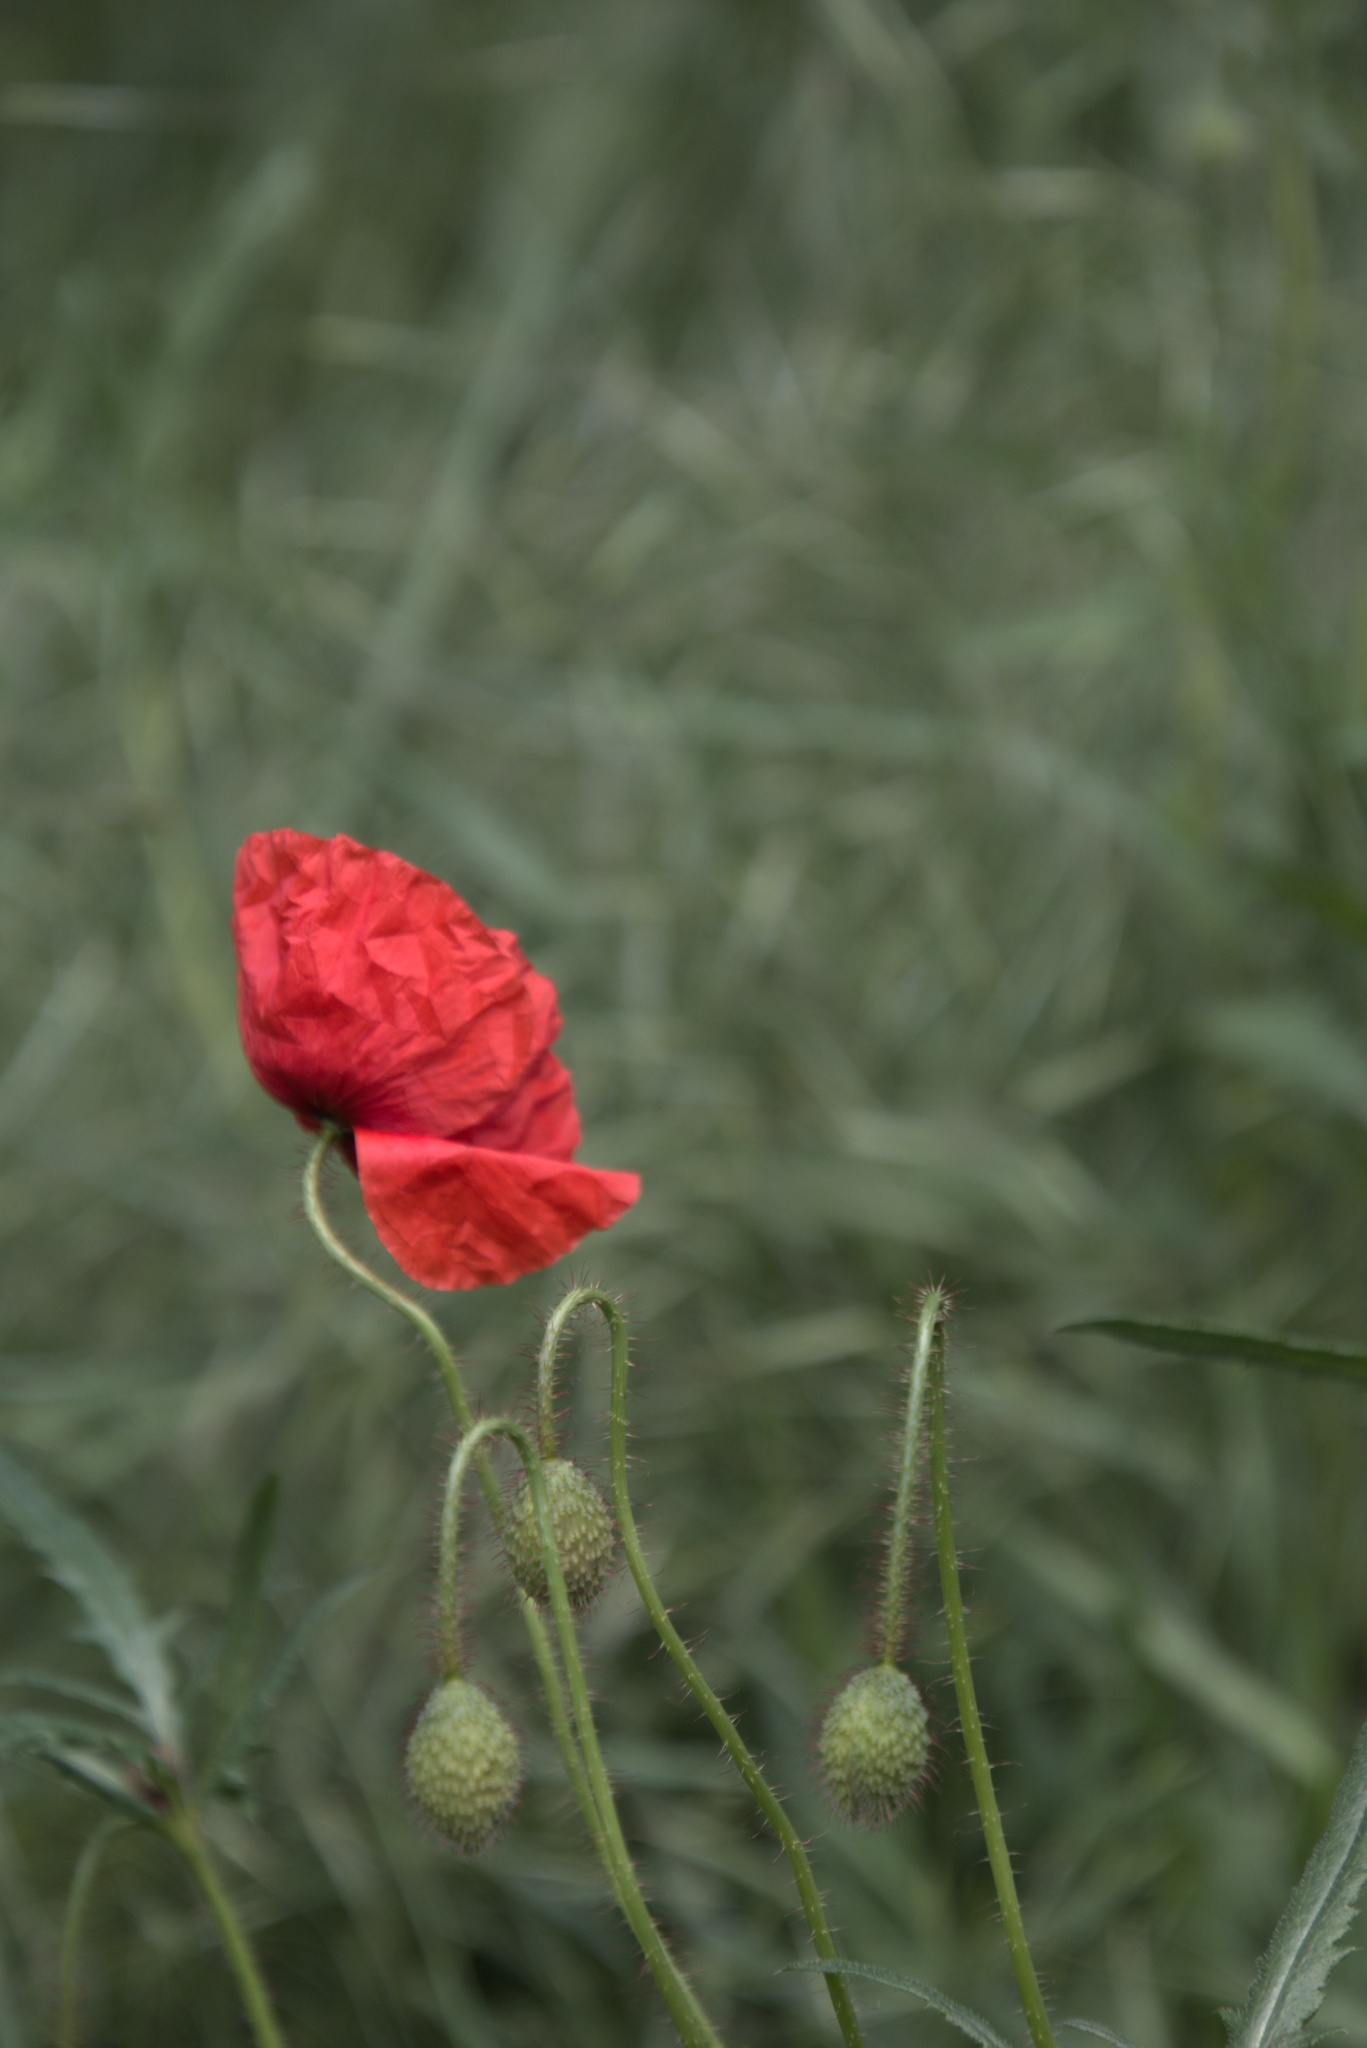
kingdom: Plantae
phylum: Tracheophyta
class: Magnoliopsida
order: Ranunculales
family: Papaveraceae
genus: Papaver
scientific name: Papaver rhoeas
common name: Corn poppy
